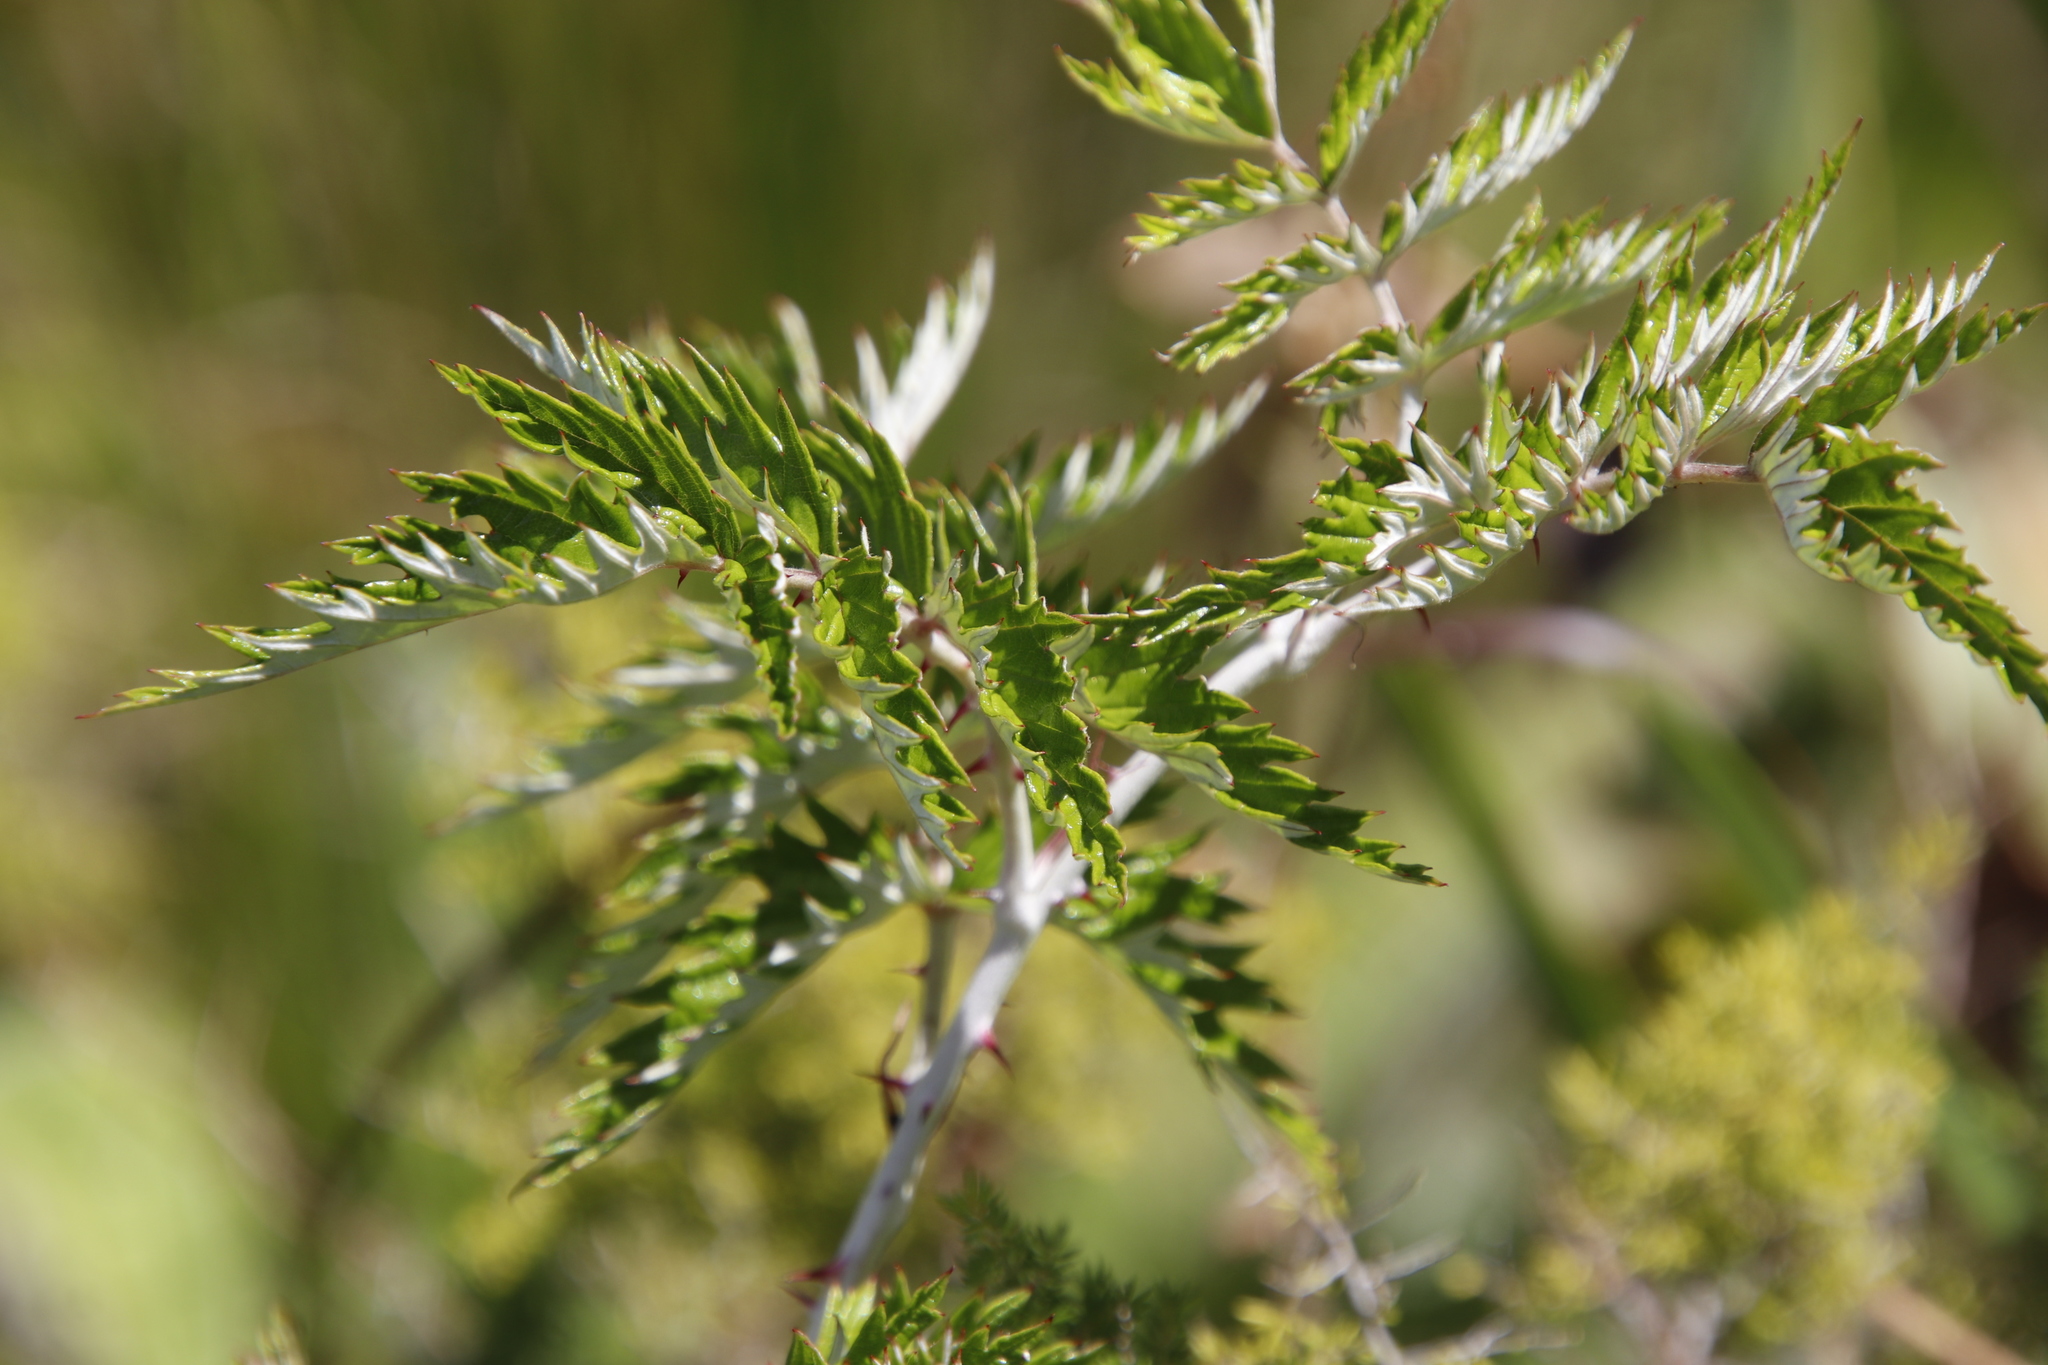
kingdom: Plantae
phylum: Tracheophyta
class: Magnoliopsida
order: Rosales
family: Rosaceae
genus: Rubus
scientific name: Rubus ludwigii
